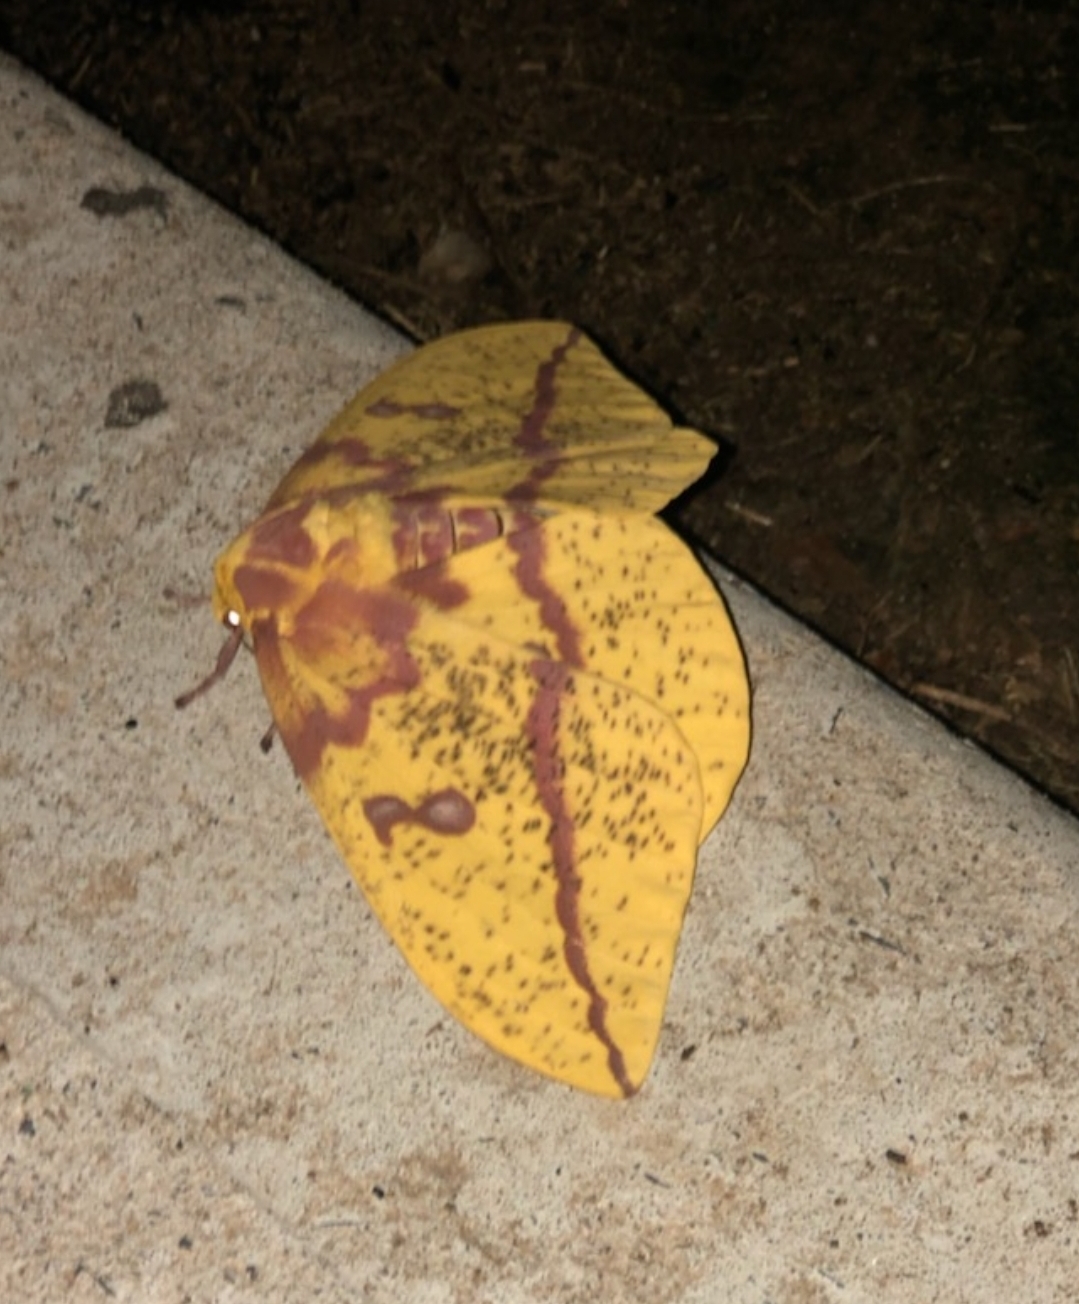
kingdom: Animalia
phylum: Arthropoda
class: Insecta
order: Lepidoptera
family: Saturniidae
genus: Eacles
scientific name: Eacles imperialis
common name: Imperial moth
